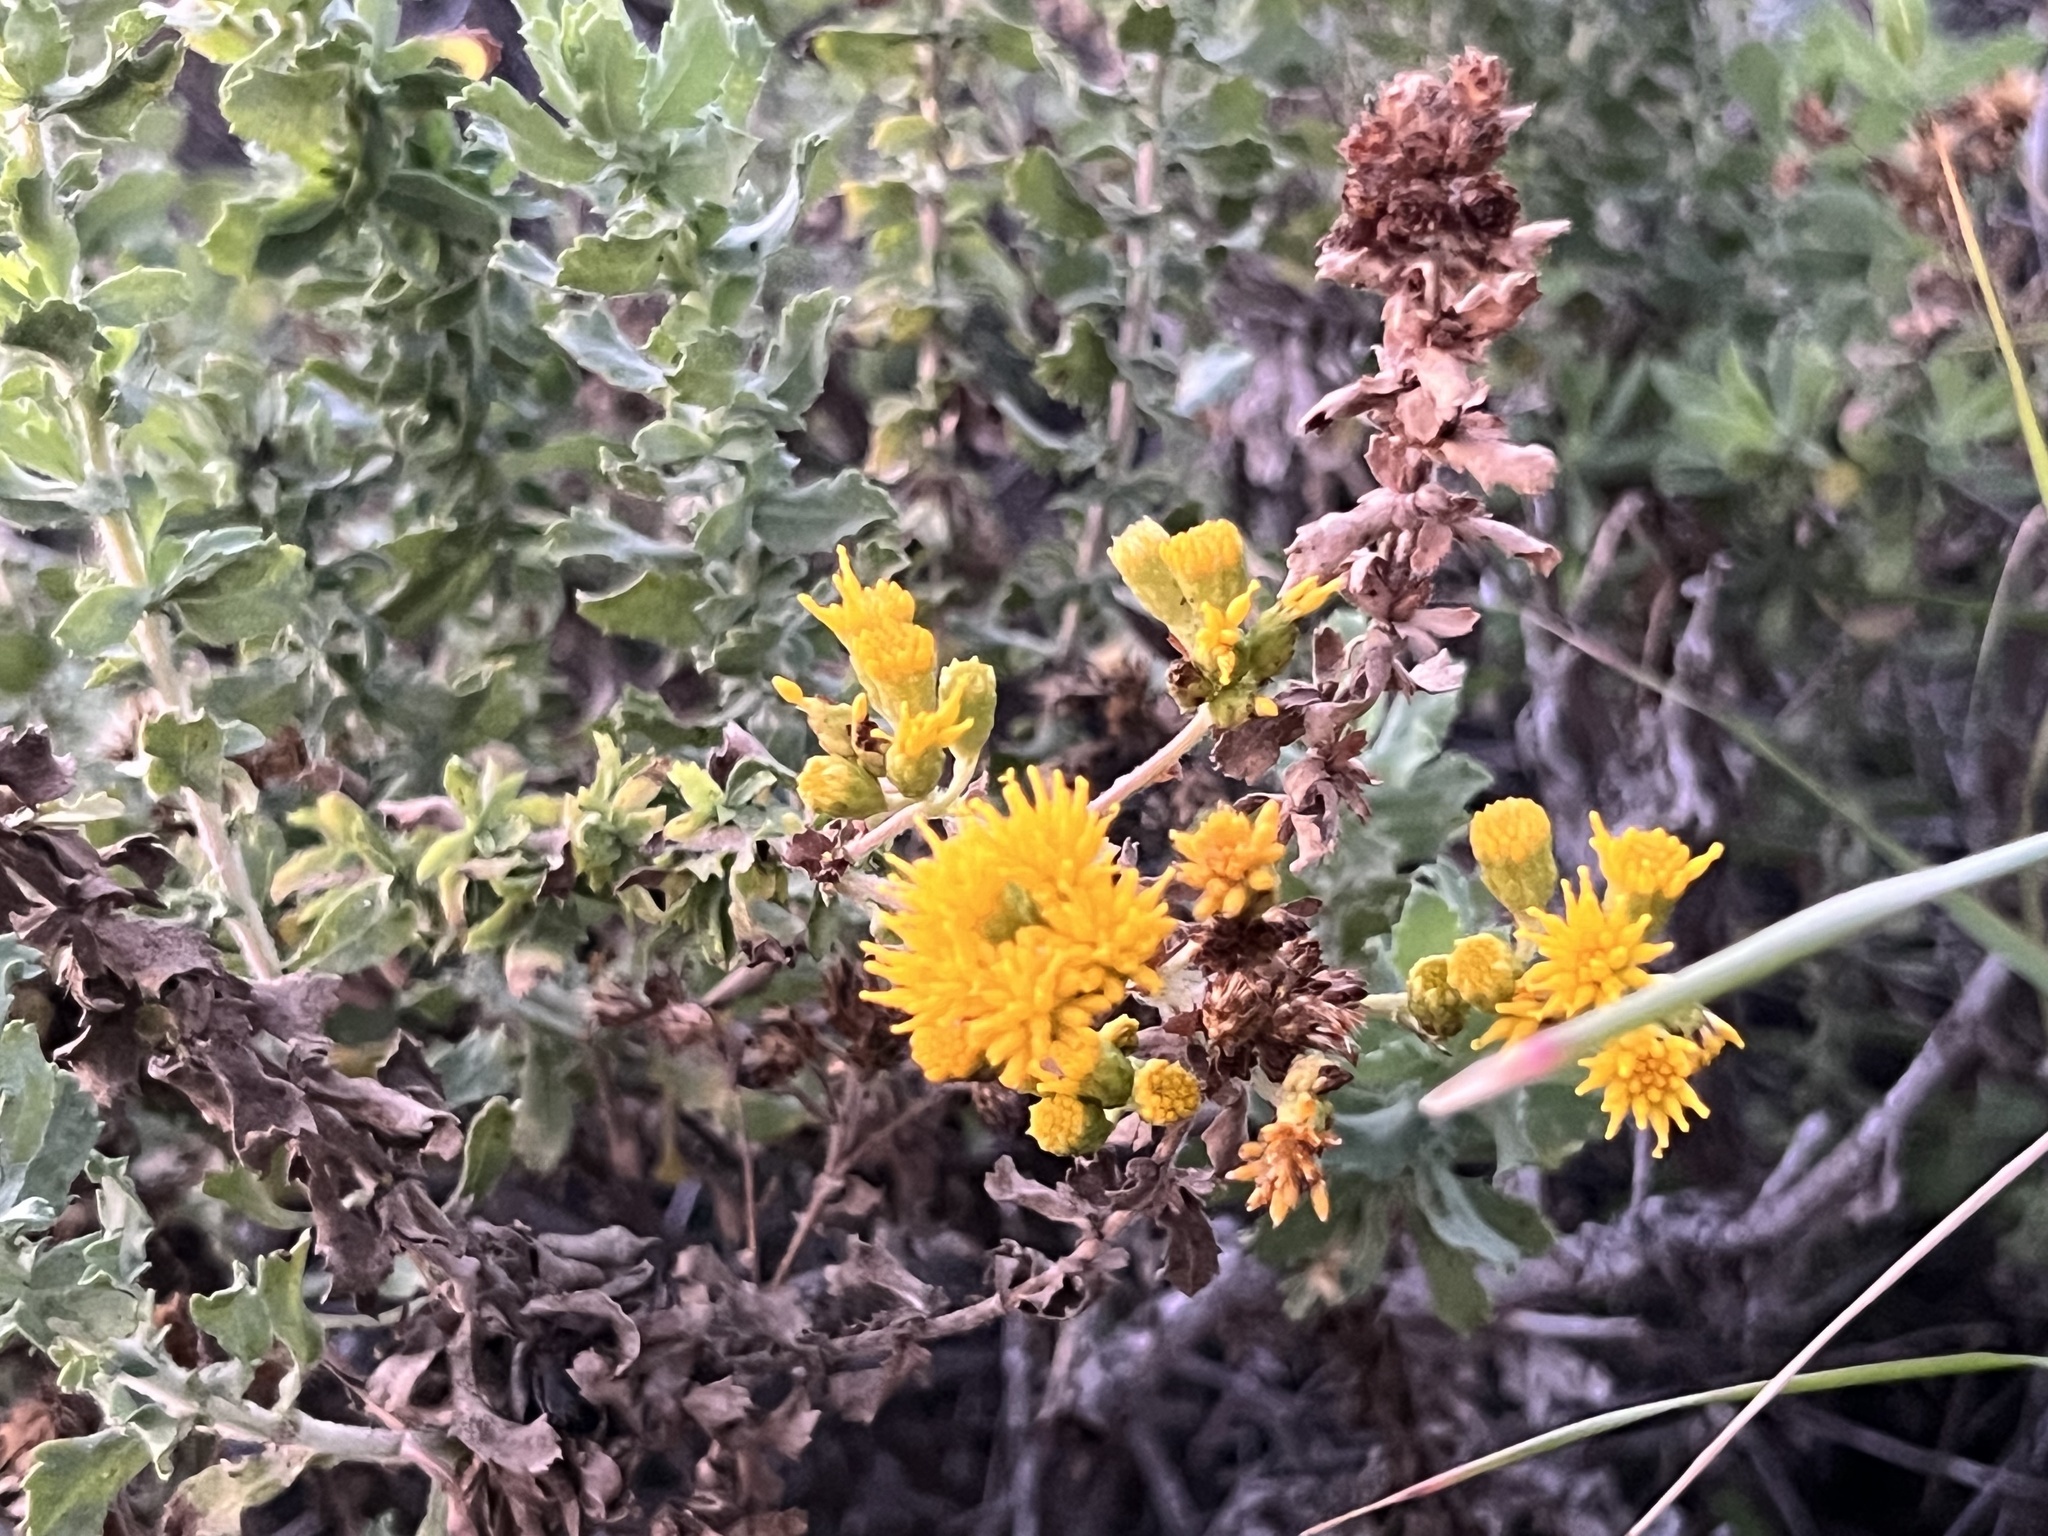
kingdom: Plantae
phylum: Tracheophyta
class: Magnoliopsida
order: Asterales
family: Asteraceae
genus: Isocoma
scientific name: Isocoma menziesii
